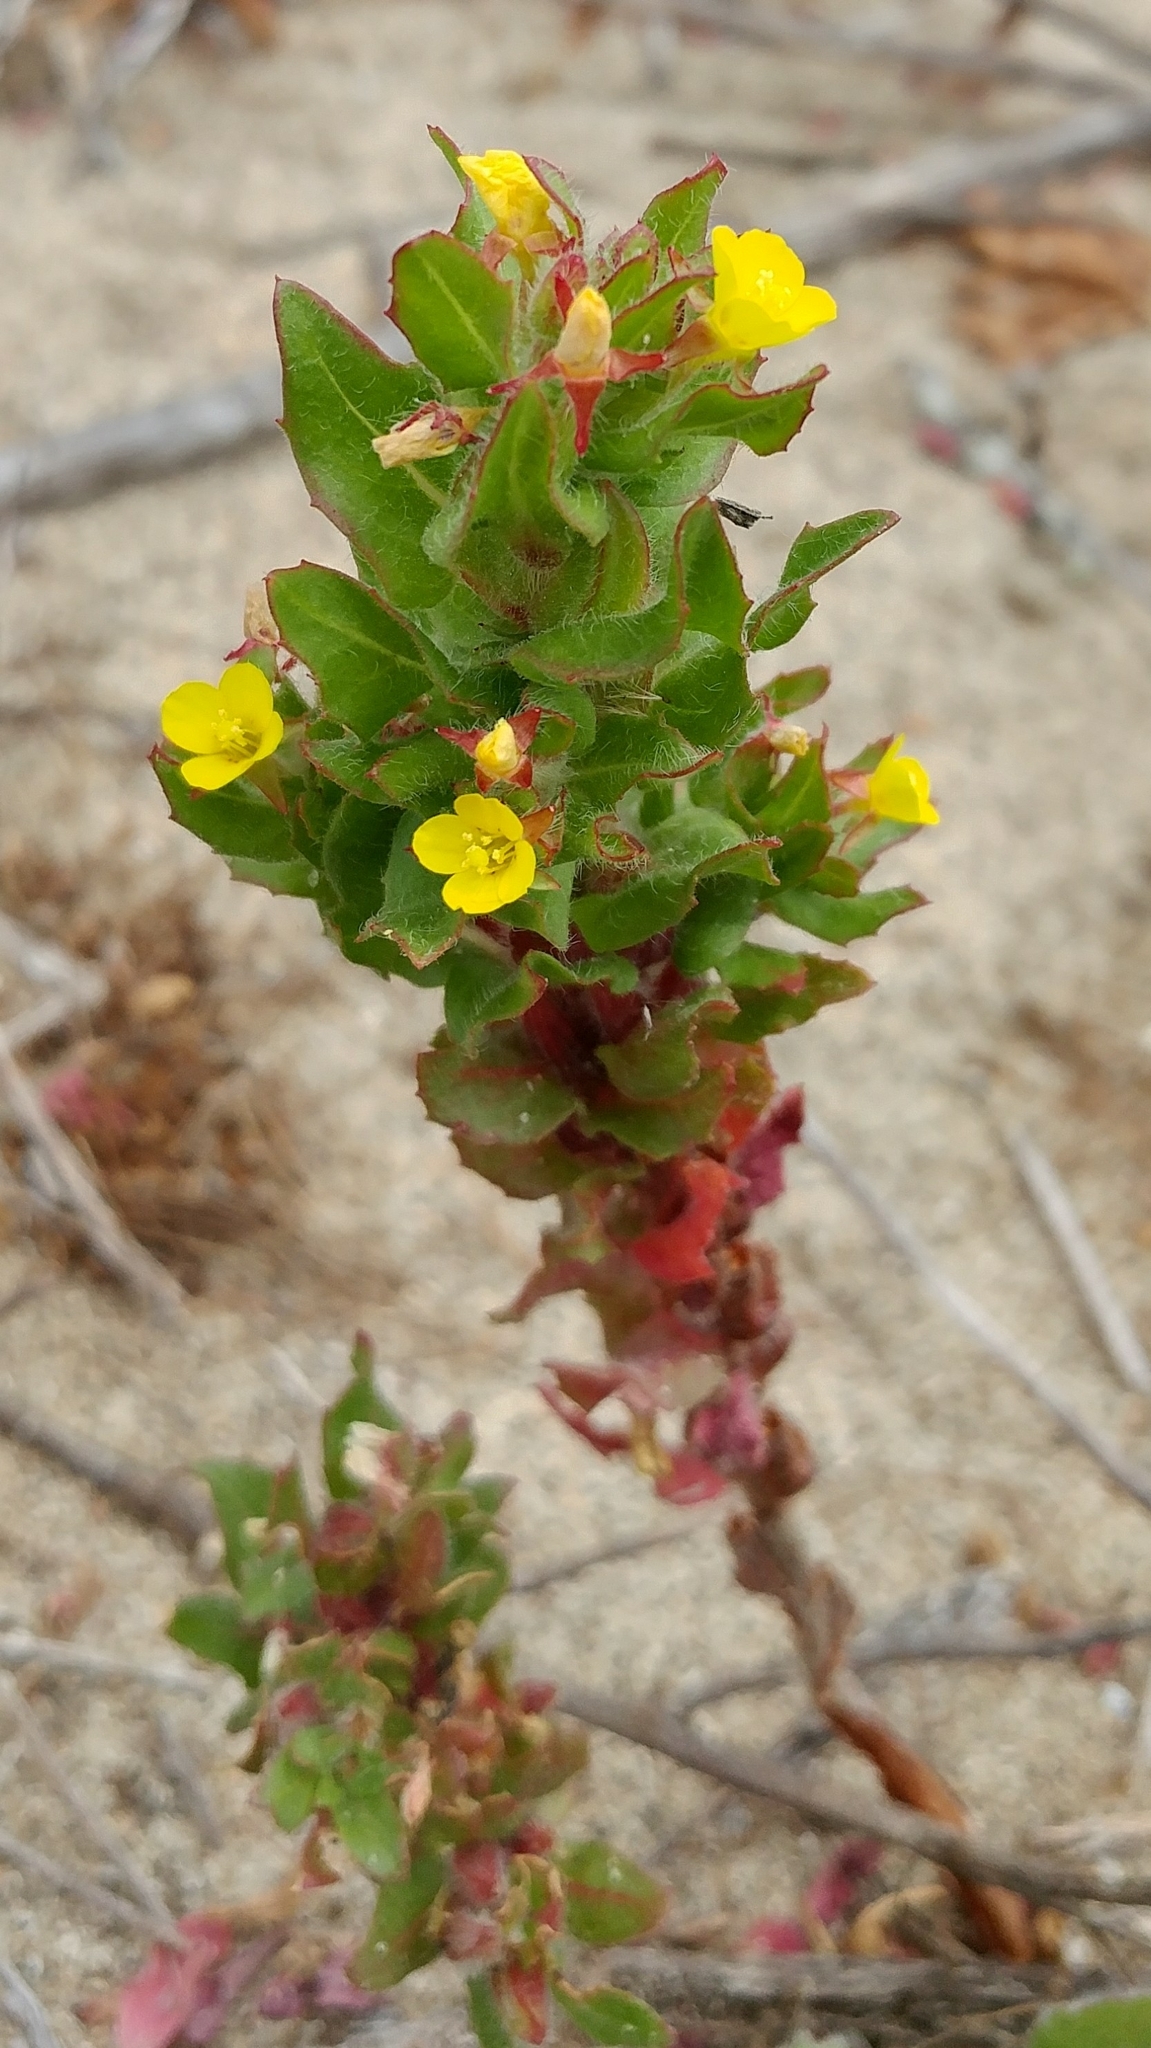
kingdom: Plantae
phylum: Tracheophyta
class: Magnoliopsida
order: Myrtales
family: Onagraceae
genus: Camissoniopsis
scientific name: Camissoniopsis guadalupensis
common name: Guadalupe suncup
